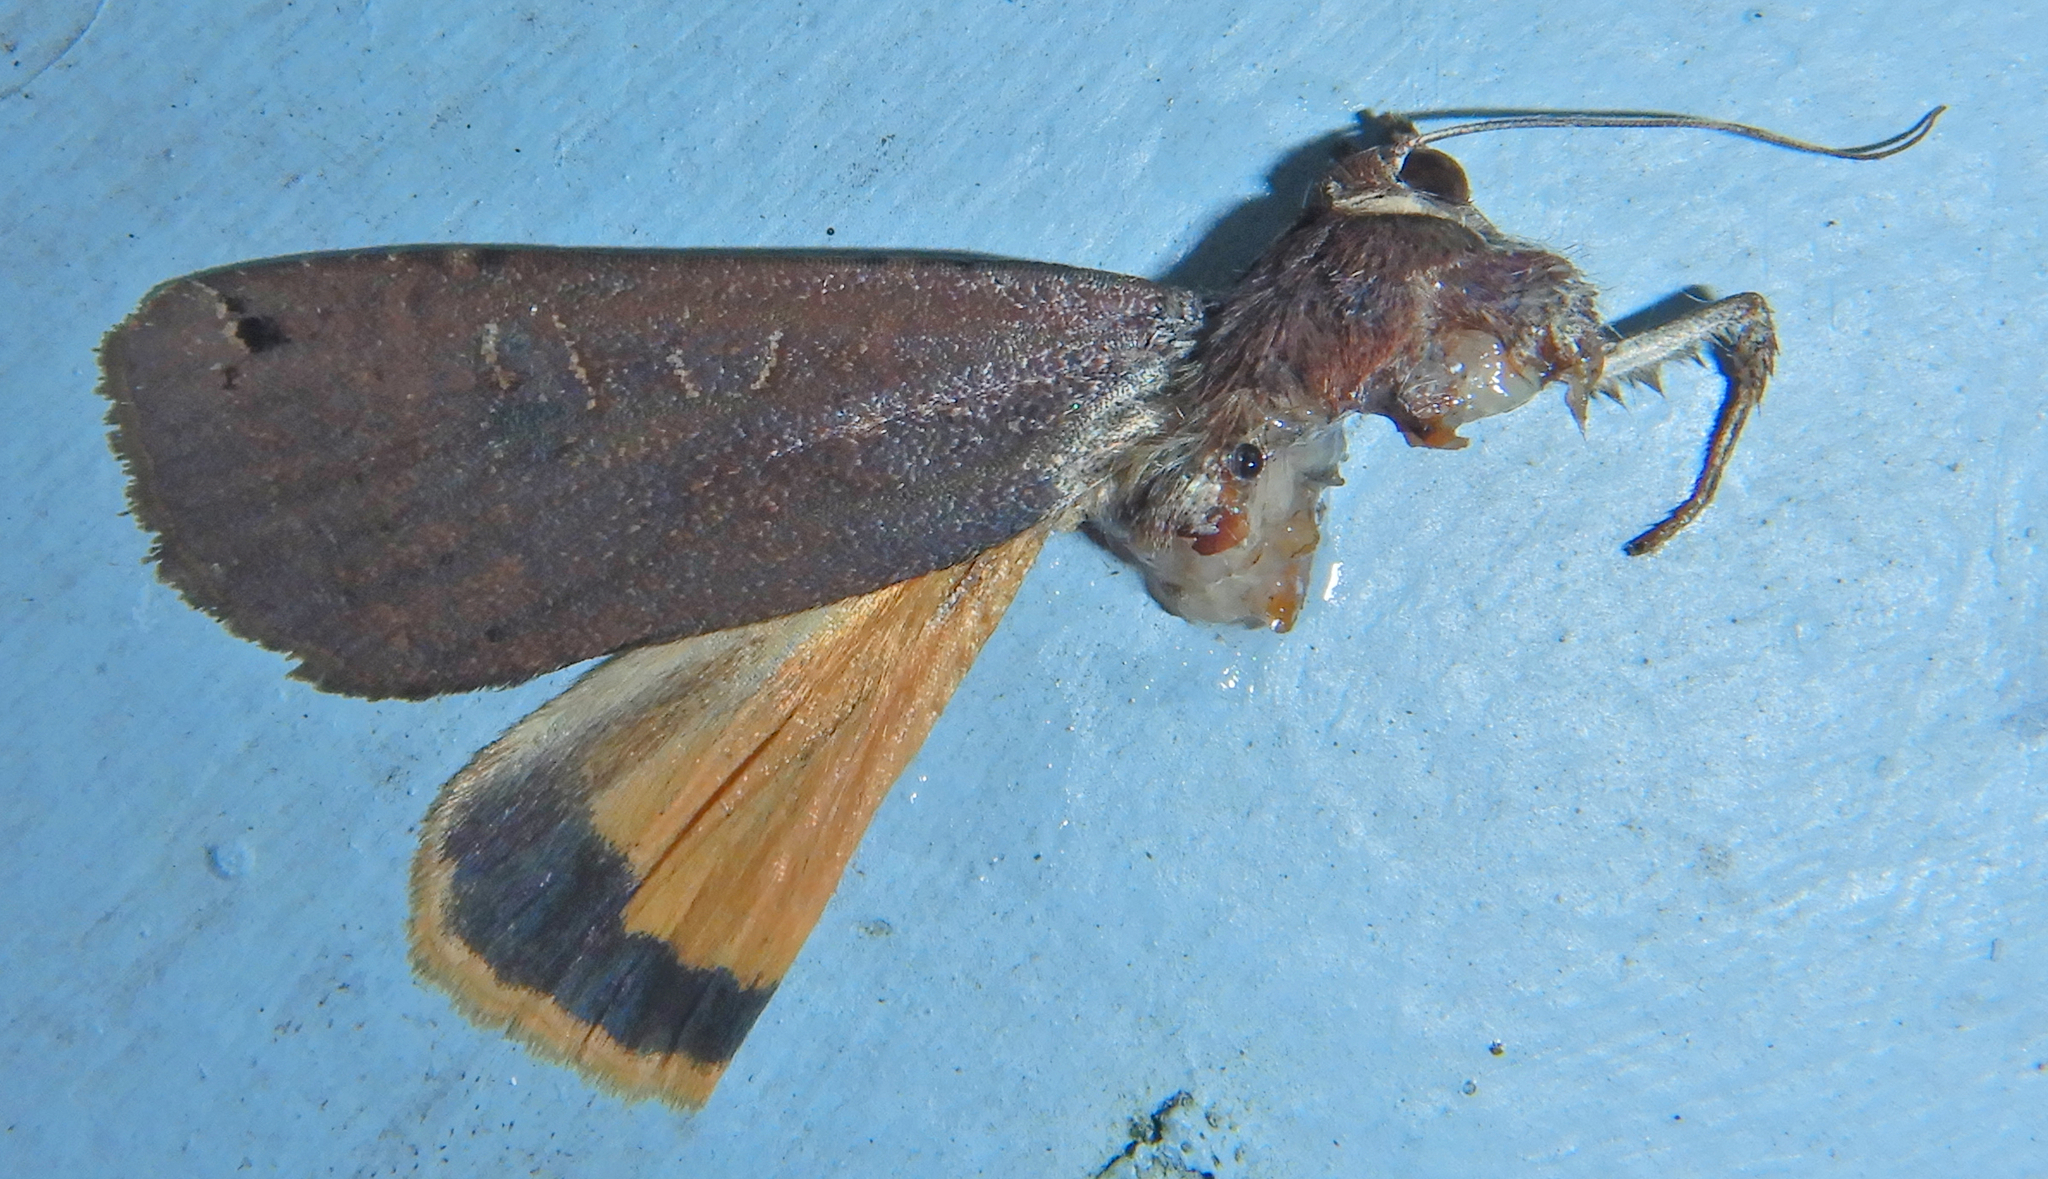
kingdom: Animalia
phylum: Arthropoda
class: Insecta
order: Lepidoptera
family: Noctuidae
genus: Noctua
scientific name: Noctua pronuba
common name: Large yellow underwing
